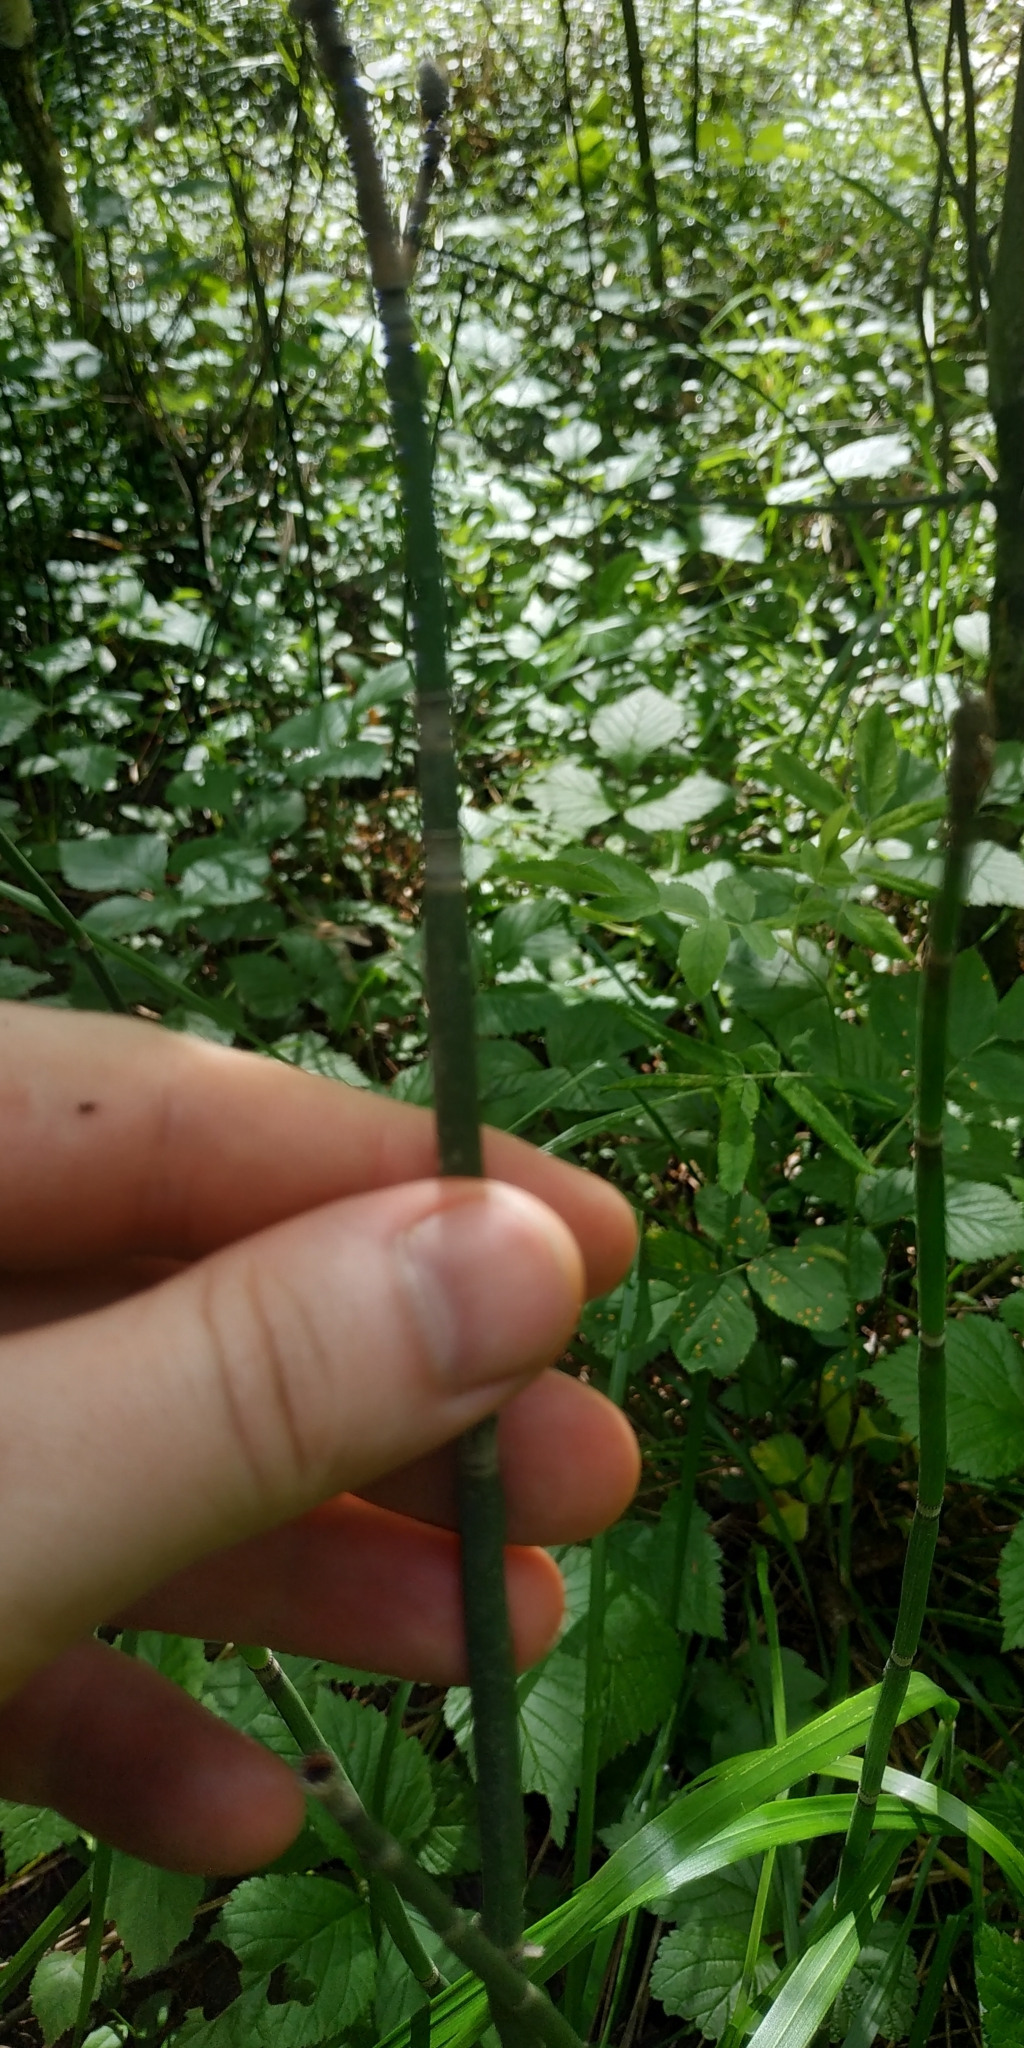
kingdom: Plantae
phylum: Tracheophyta
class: Polypodiopsida
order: Equisetales
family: Equisetaceae
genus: Equisetum
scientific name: Equisetum hyemale
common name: Rough horsetail
